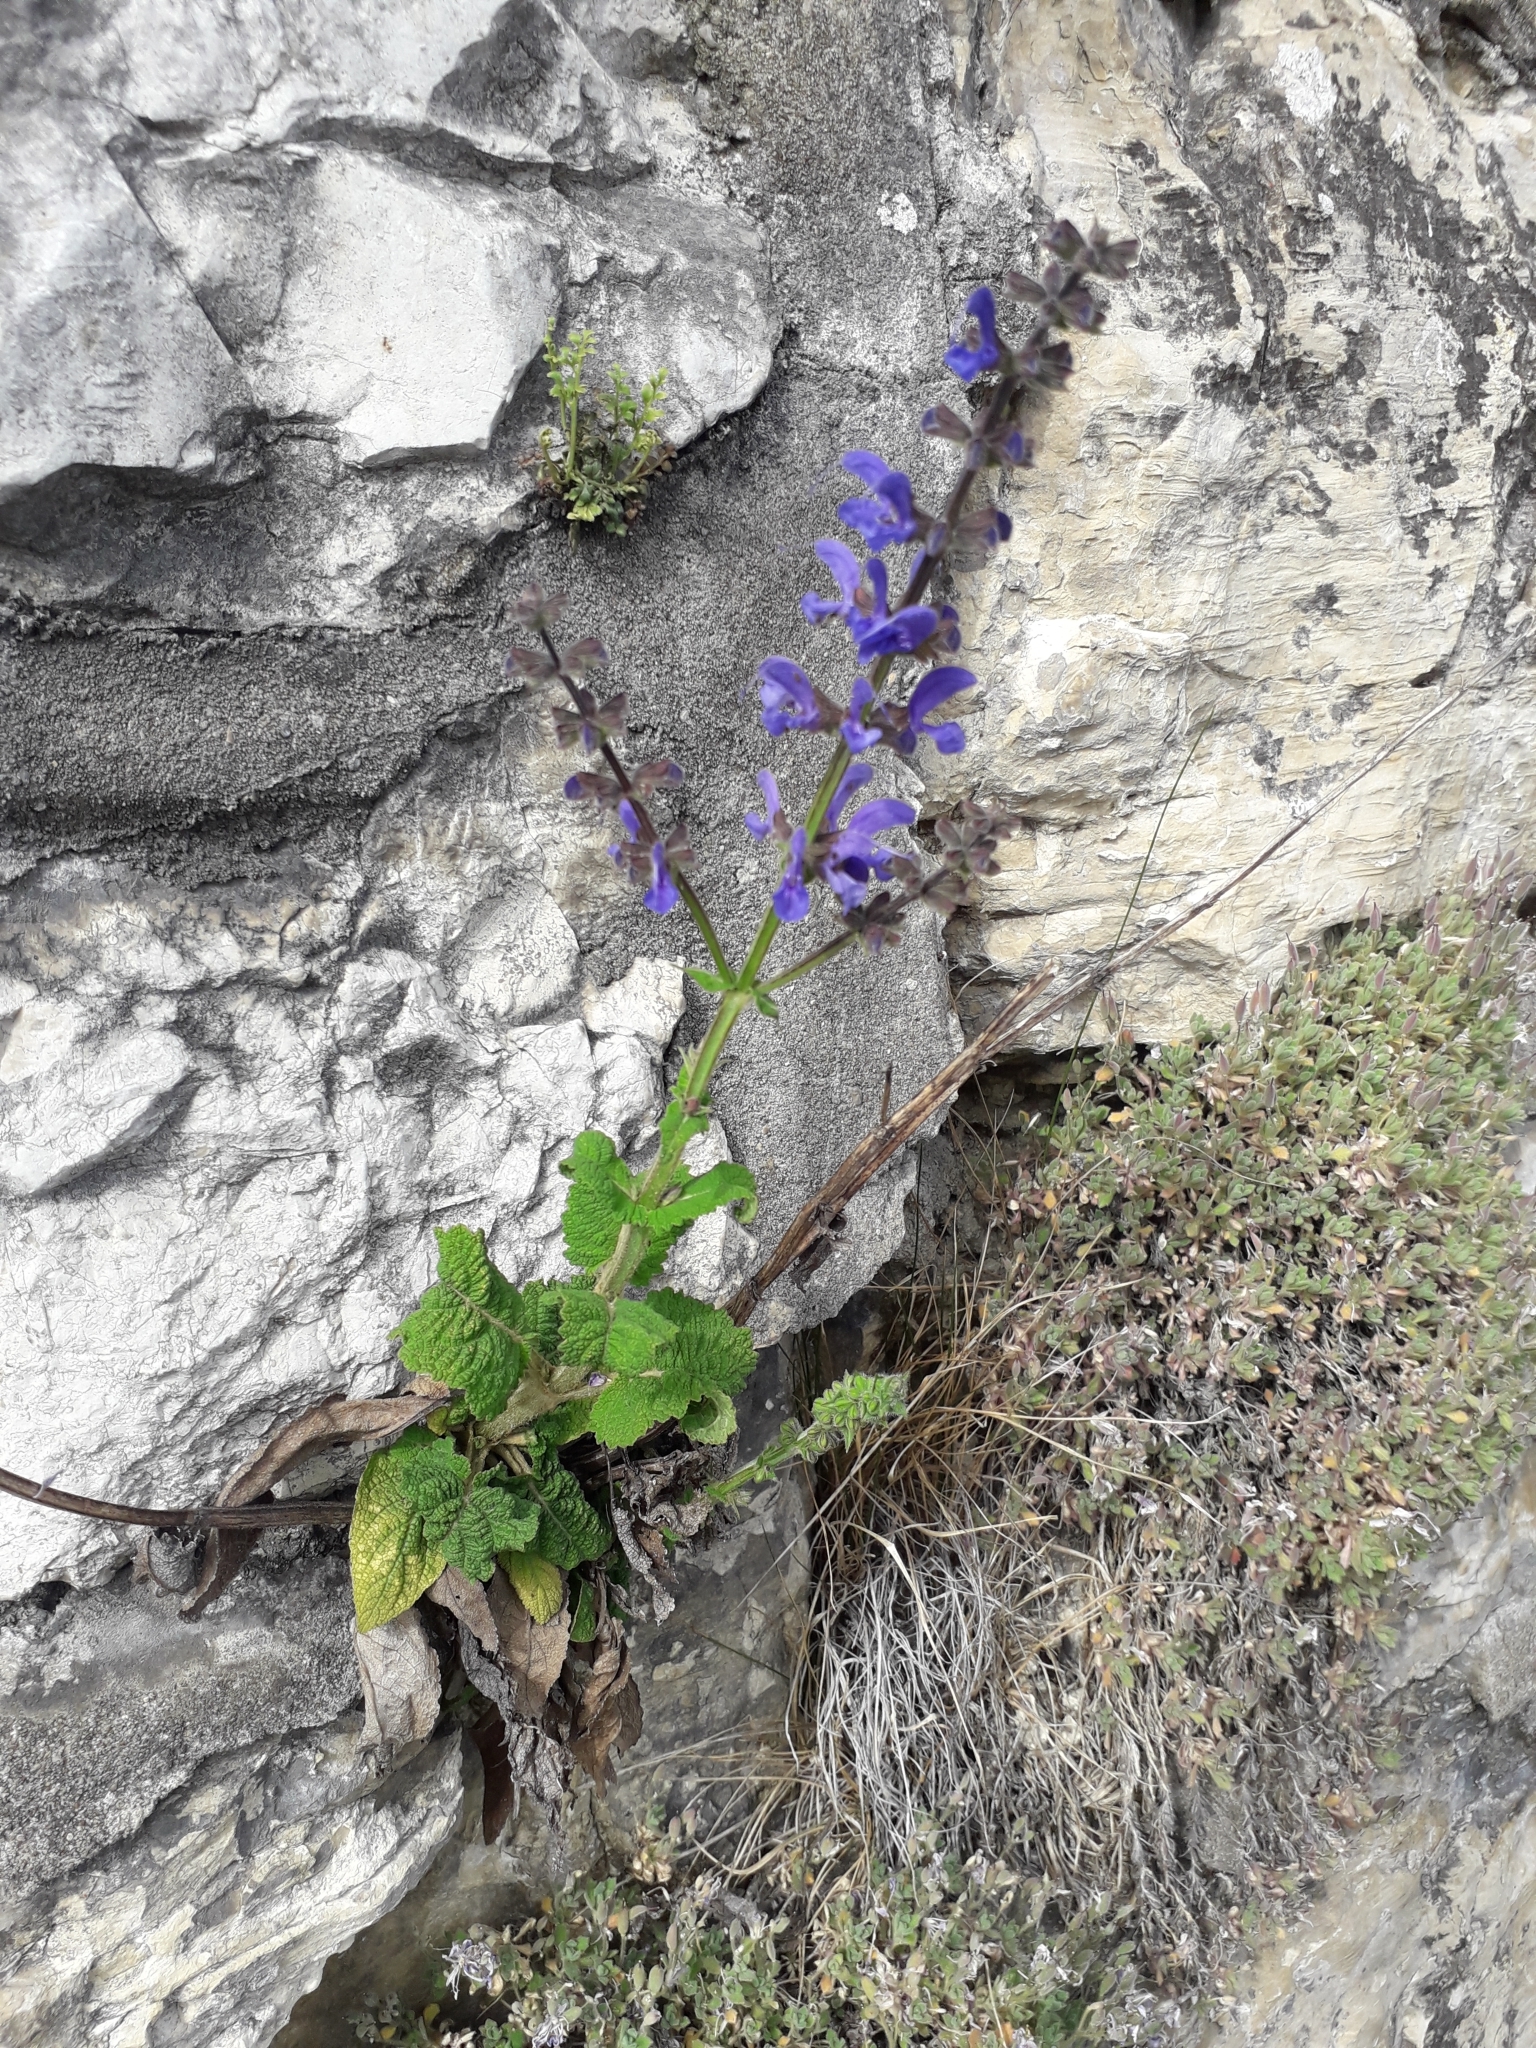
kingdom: Plantae
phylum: Tracheophyta
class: Magnoliopsida
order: Lamiales
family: Lamiaceae
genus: Salvia
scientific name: Salvia pratensis
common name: Meadow sage
